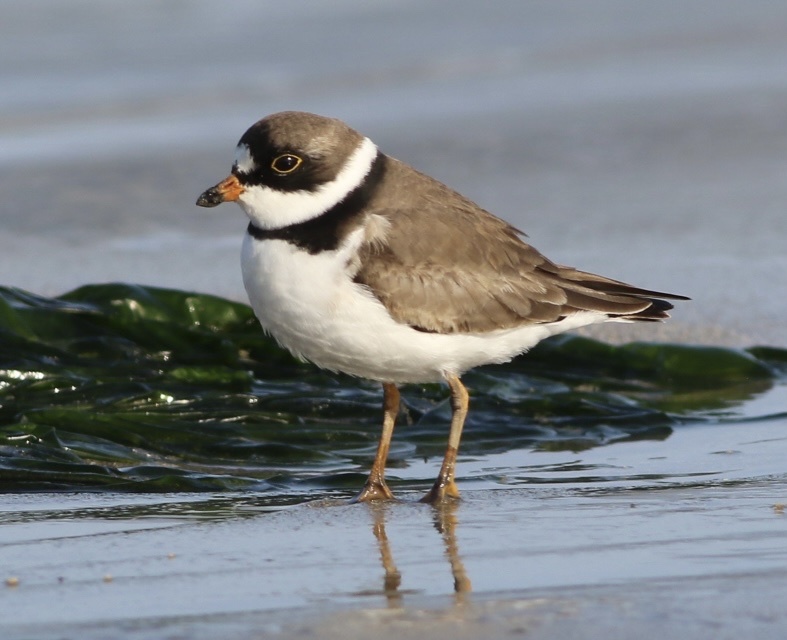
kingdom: Animalia
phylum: Chordata
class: Aves
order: Charadriiformes
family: Charadriidae
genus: Charadrius
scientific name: Charadrius semipalmatus
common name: Semipalmated plover
